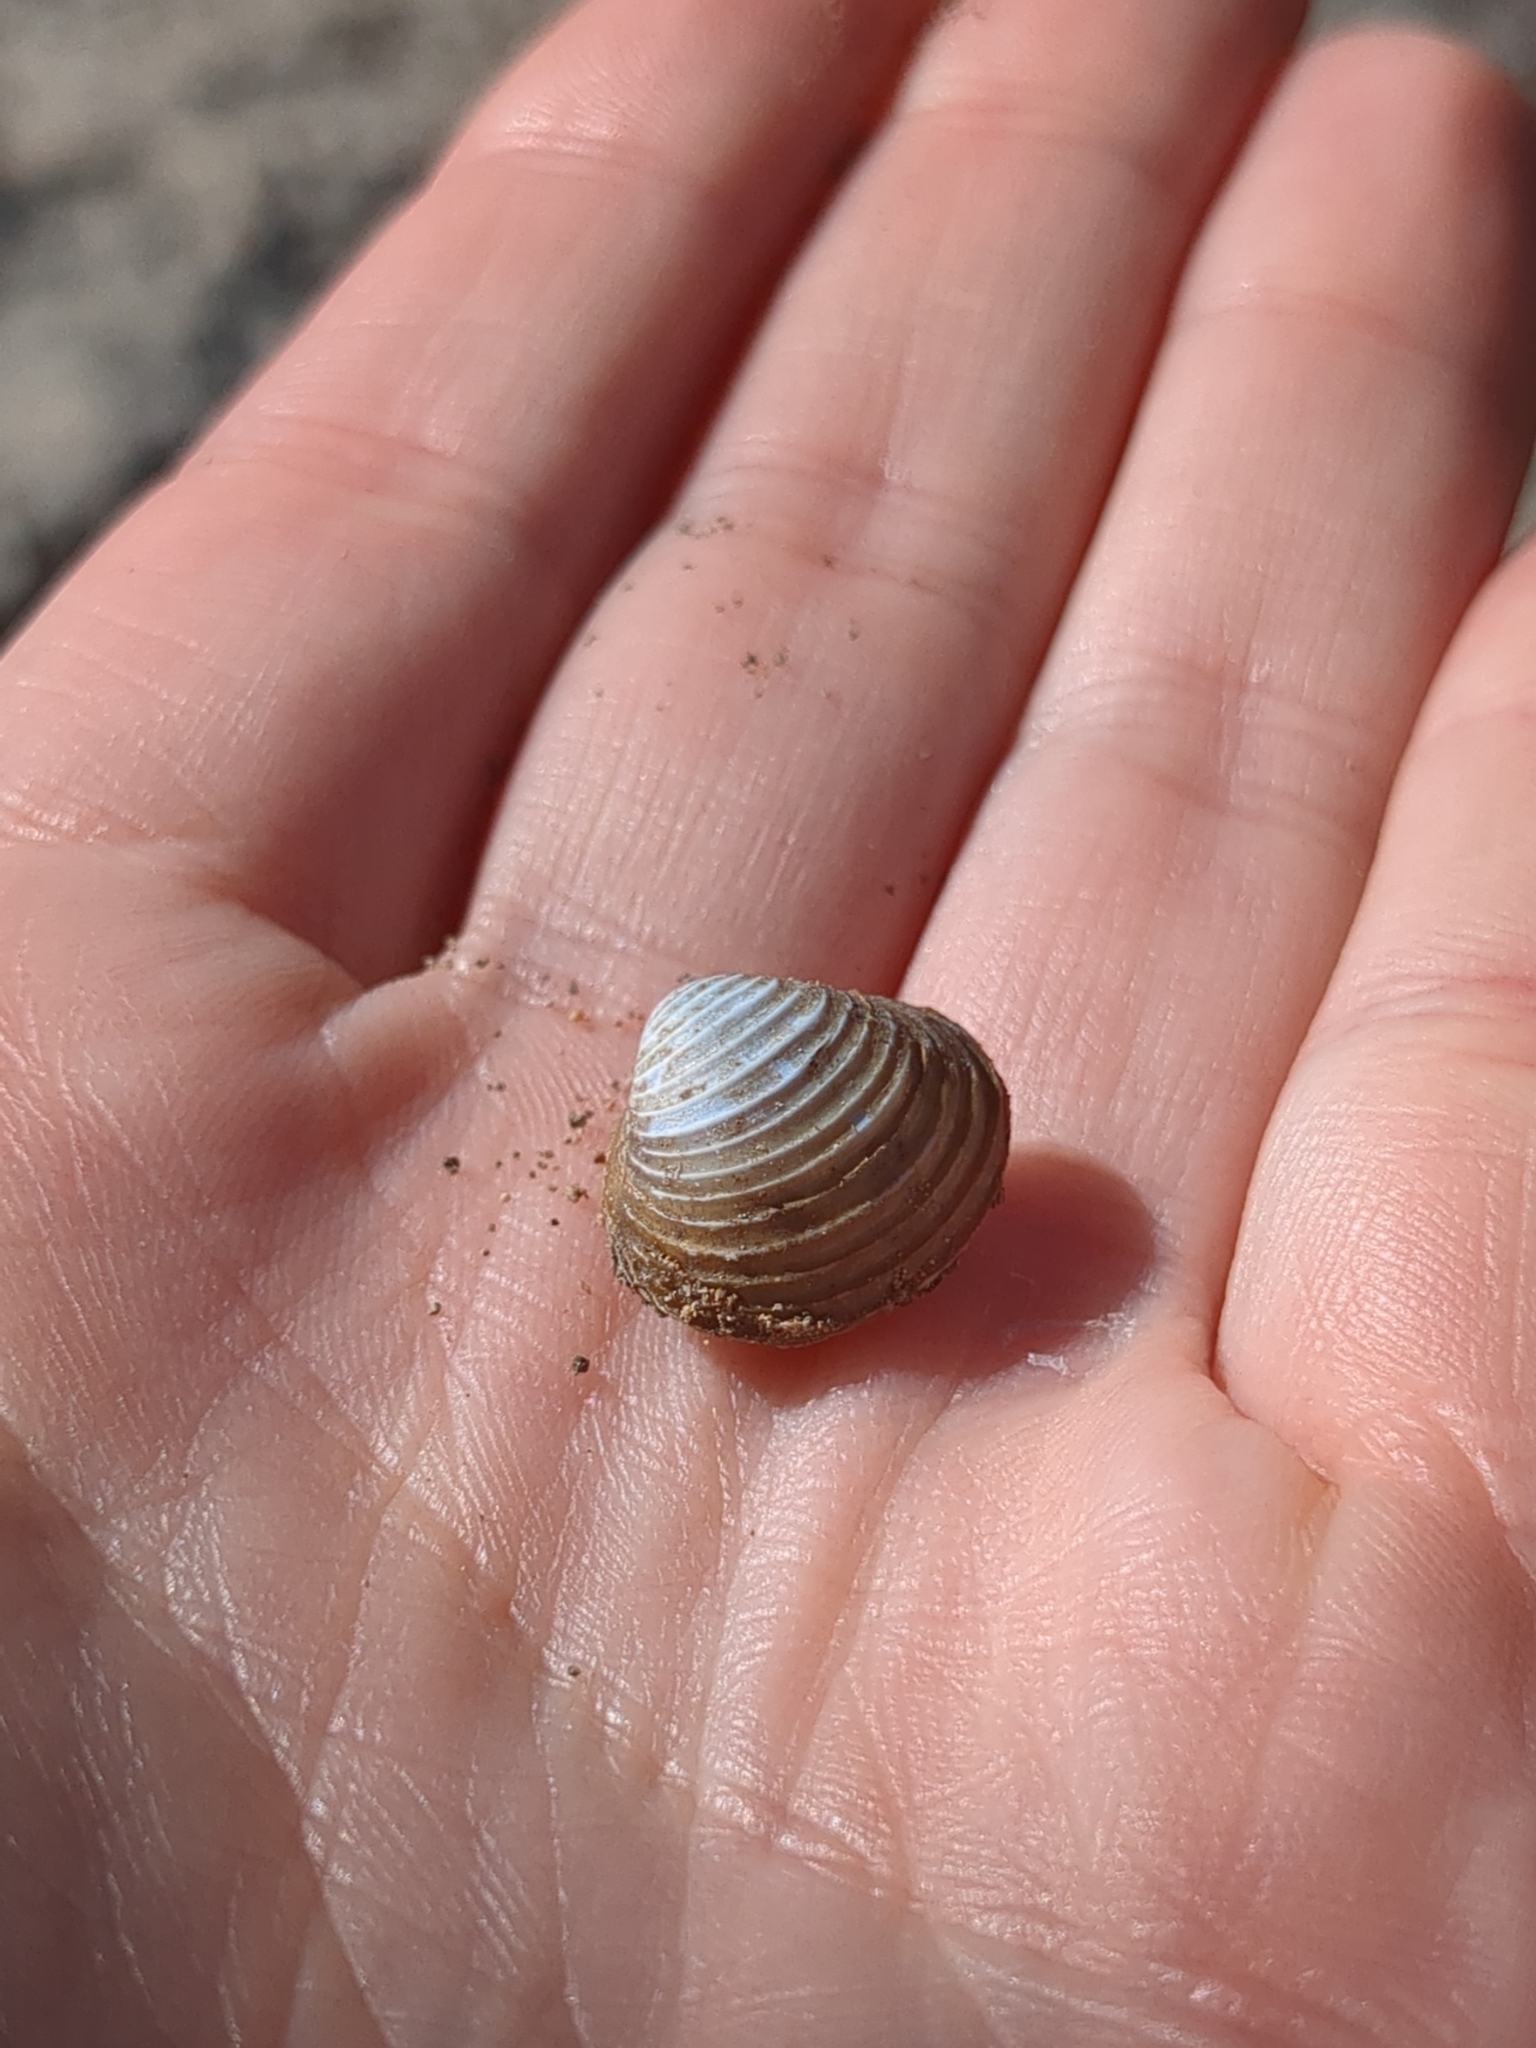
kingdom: Animalia
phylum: Mollusca
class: Bivalvia
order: Venerida
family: Cyrenidae
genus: Corbicula
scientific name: Corbicula fluminea
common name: Asian clam
